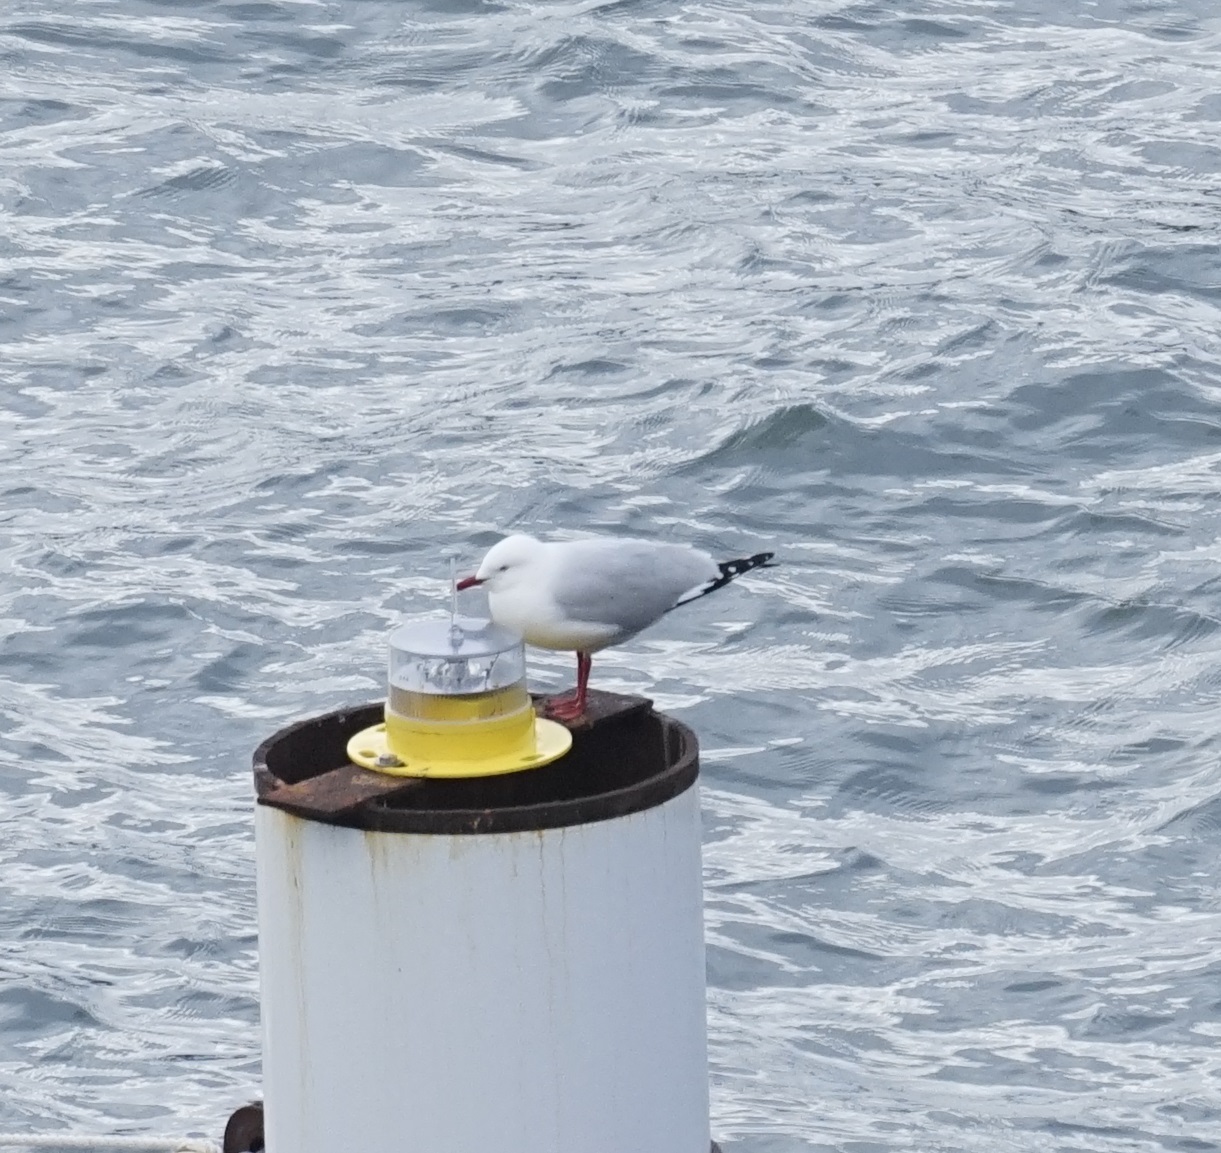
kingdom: Animalia
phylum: Chordata
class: Aves
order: Charadriiformes
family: Laridae
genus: Chroicocephalus
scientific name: Chroicocephalus novaehollandiae
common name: Silver gull
